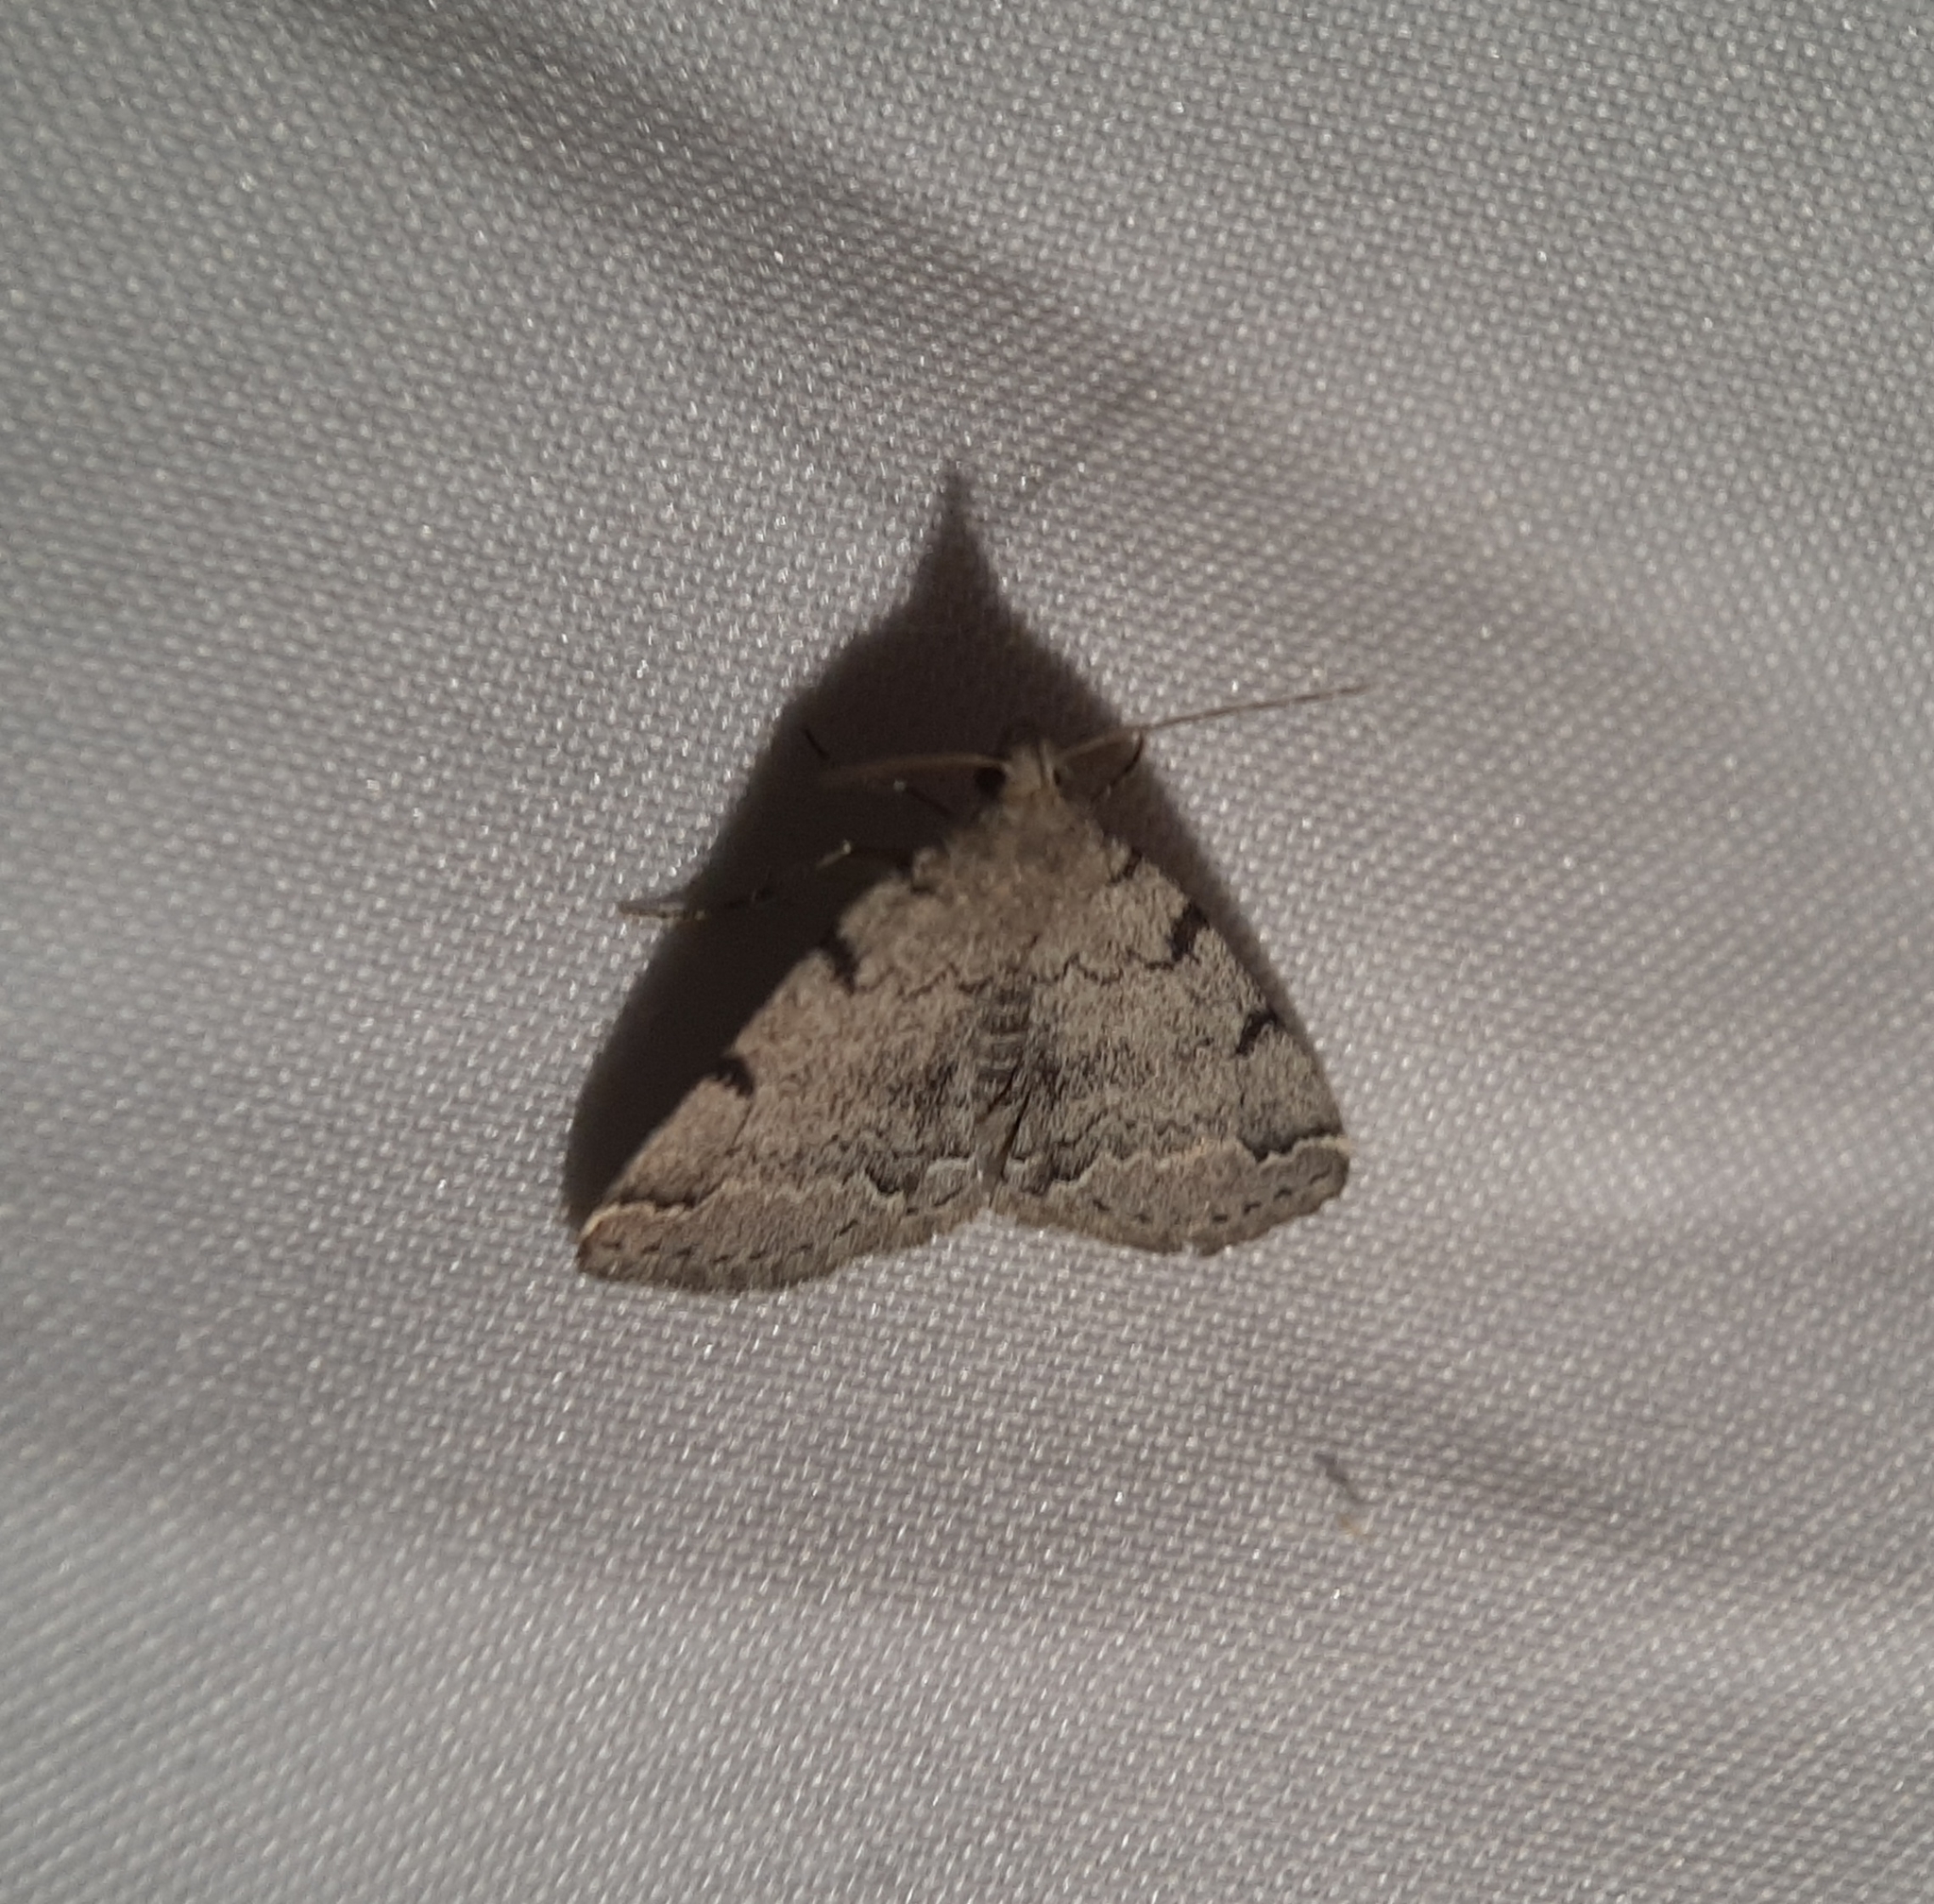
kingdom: Animalia
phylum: Arthropoda
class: Insecta
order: Lepidoptera
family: Erebidae
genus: Zanclognatha
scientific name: Zanclognatha theralis
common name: Flagged fan-foot
